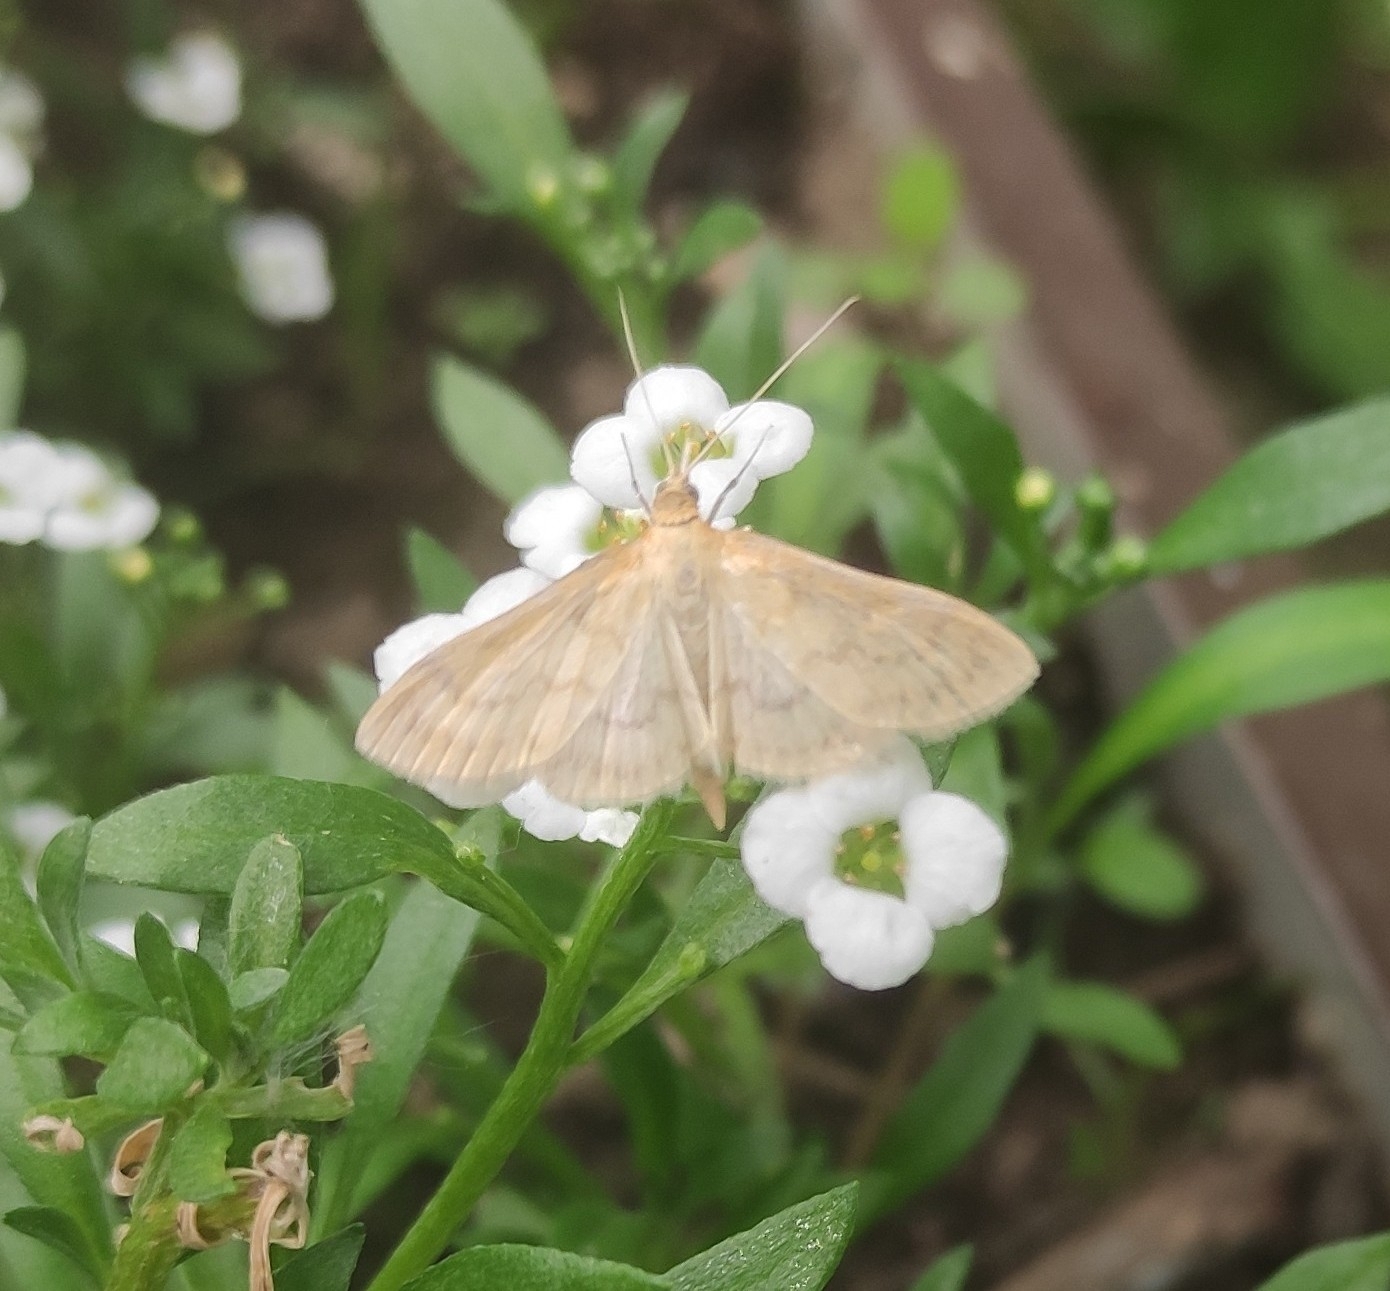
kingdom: Animalia
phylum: Arthropoda
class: Insecta
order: Lepidoptera
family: Crambidae
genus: Paratalanta
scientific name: Paratalanta pandalis
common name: Bordered pearl
